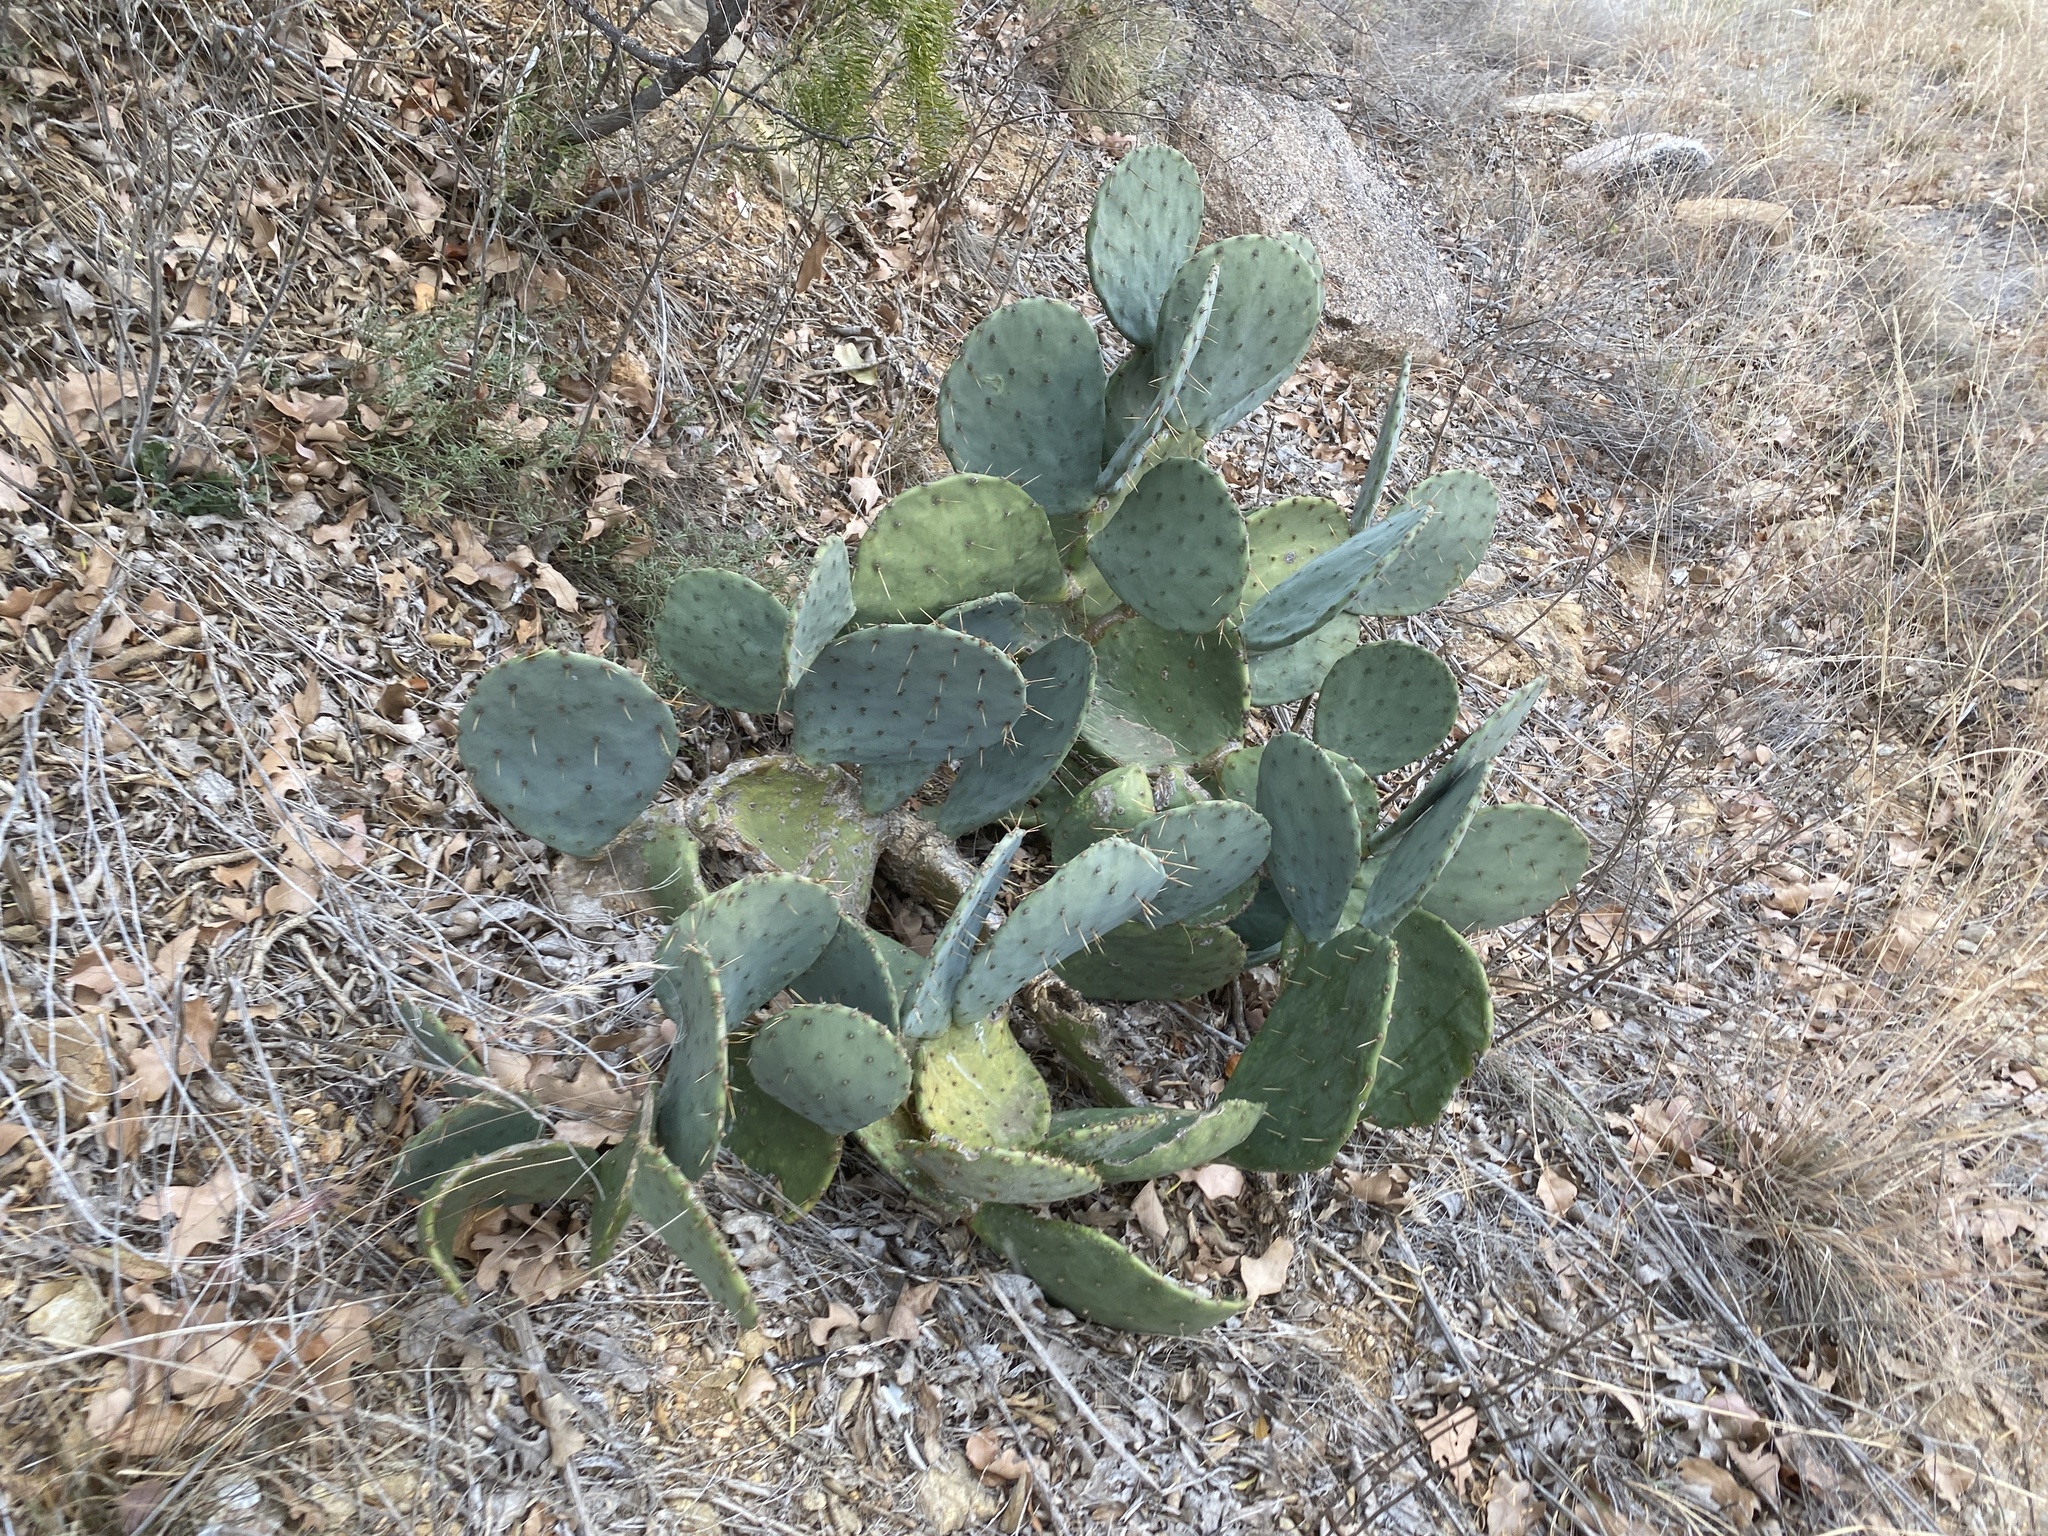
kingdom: Plantae
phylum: Tracheophyta
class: Magnoliopsida
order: Caryophyllales
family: Cactaceae
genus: Opuntia
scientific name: Opuntia engelmannii
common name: Cactus-apple
